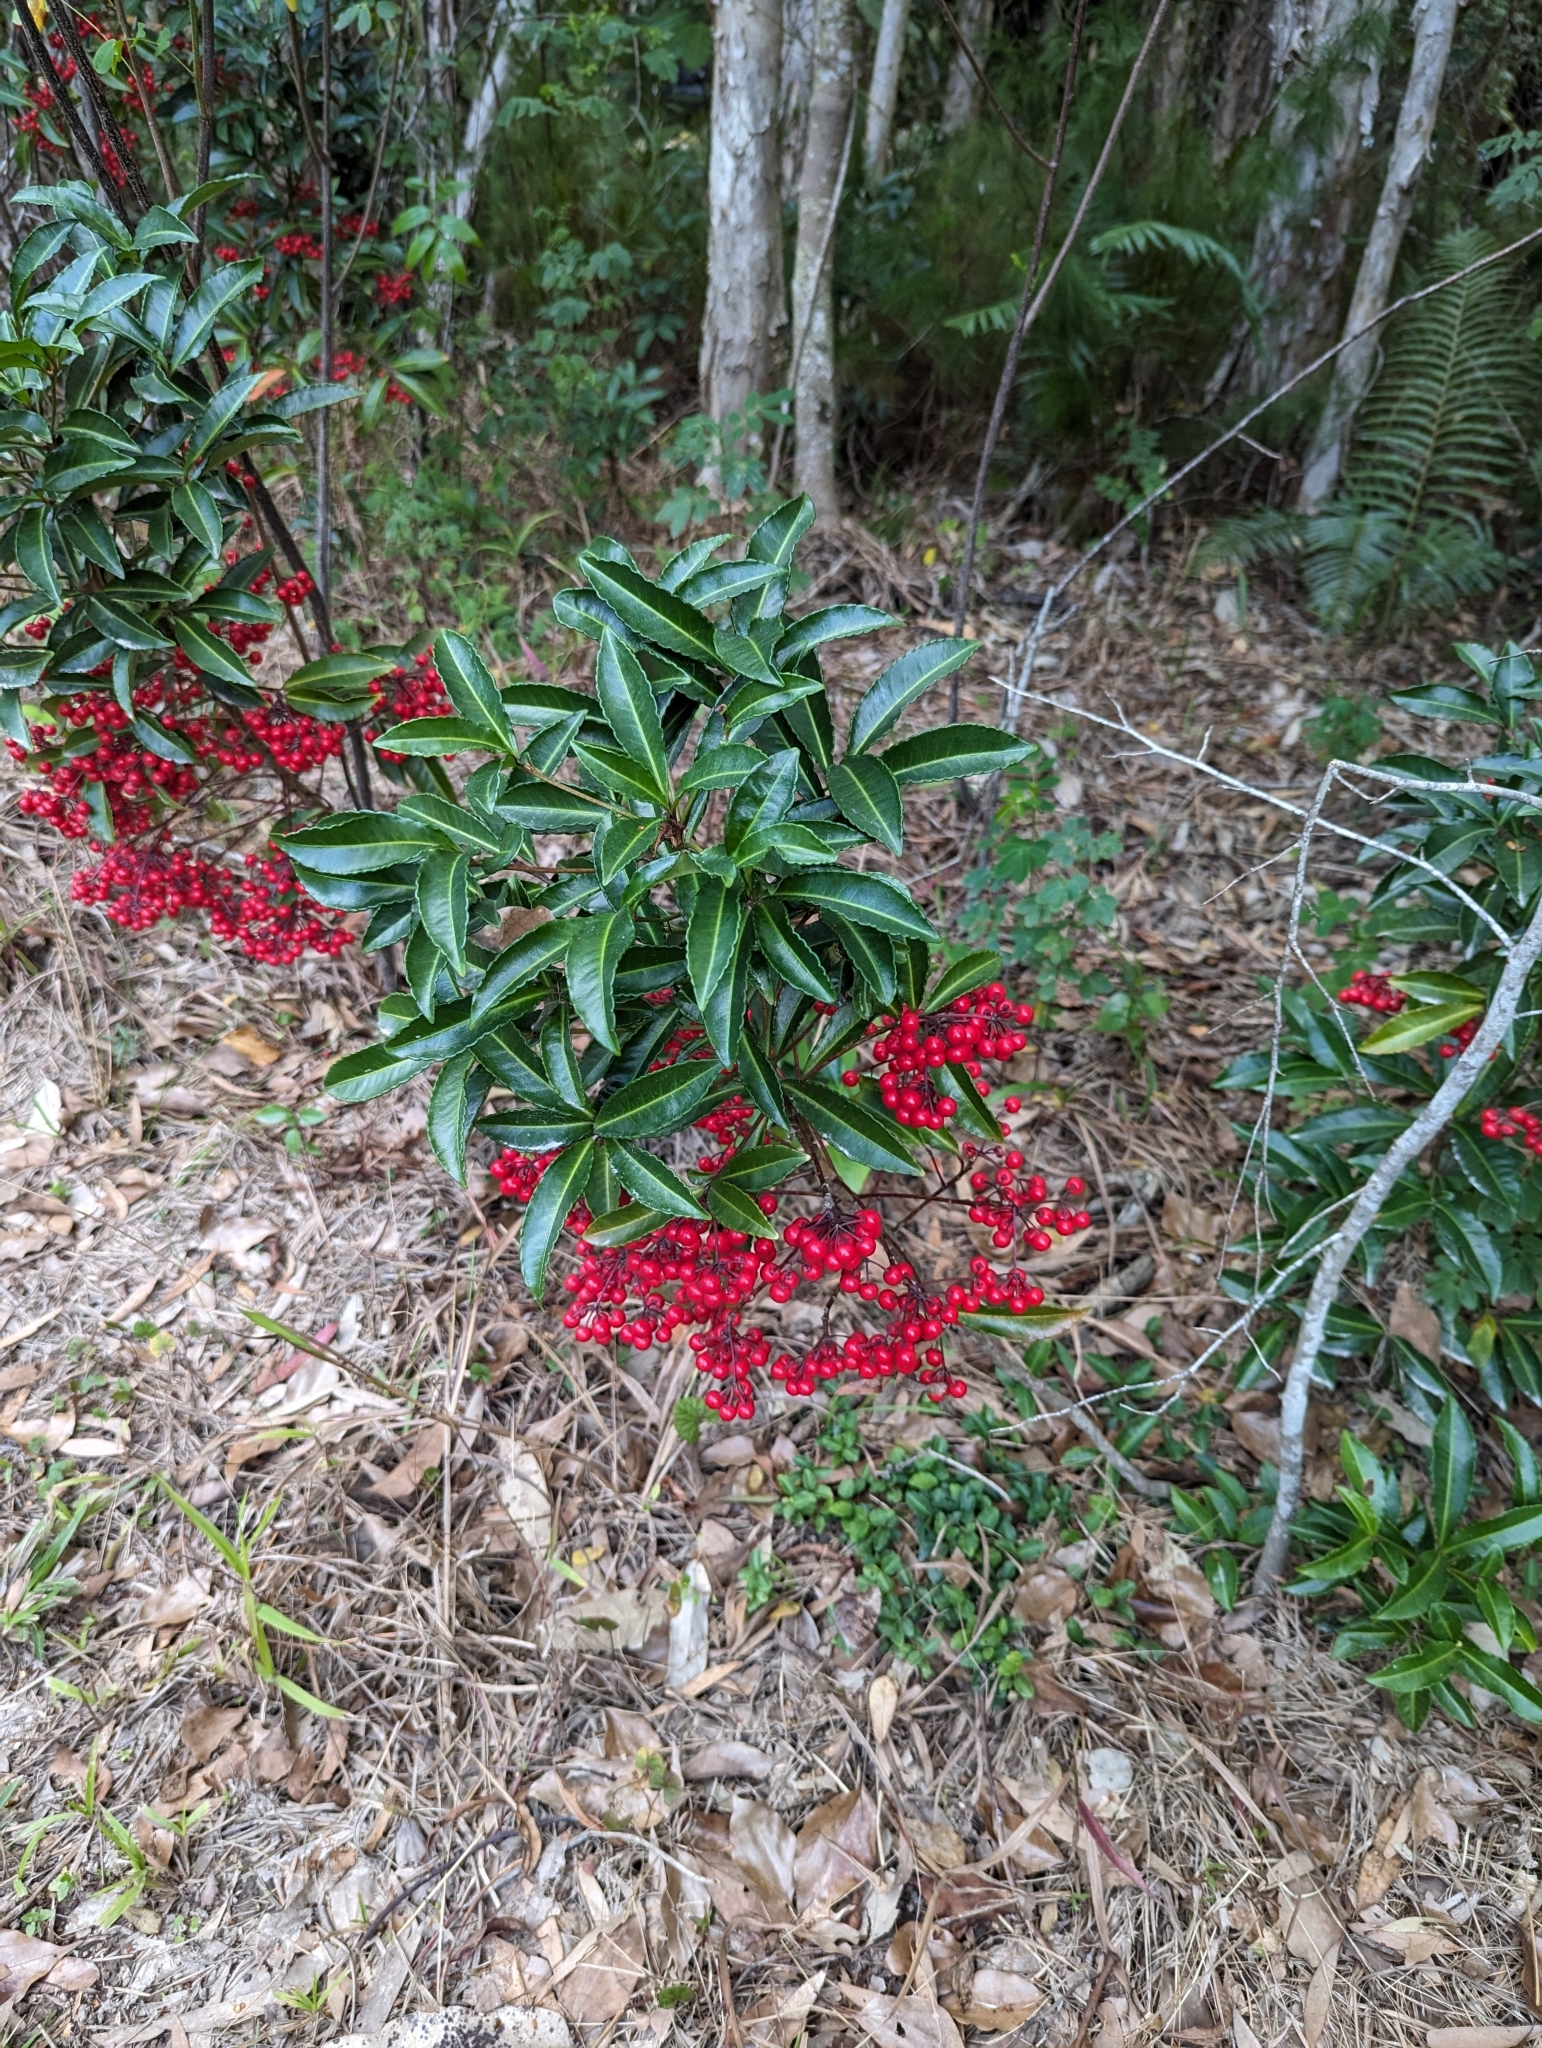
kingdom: Plantae
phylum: Tracheophyta
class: Magnoliopsida
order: Ericales
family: Primulaceae
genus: Ardisia
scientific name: Ardisia crenata
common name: Hen's eyes
